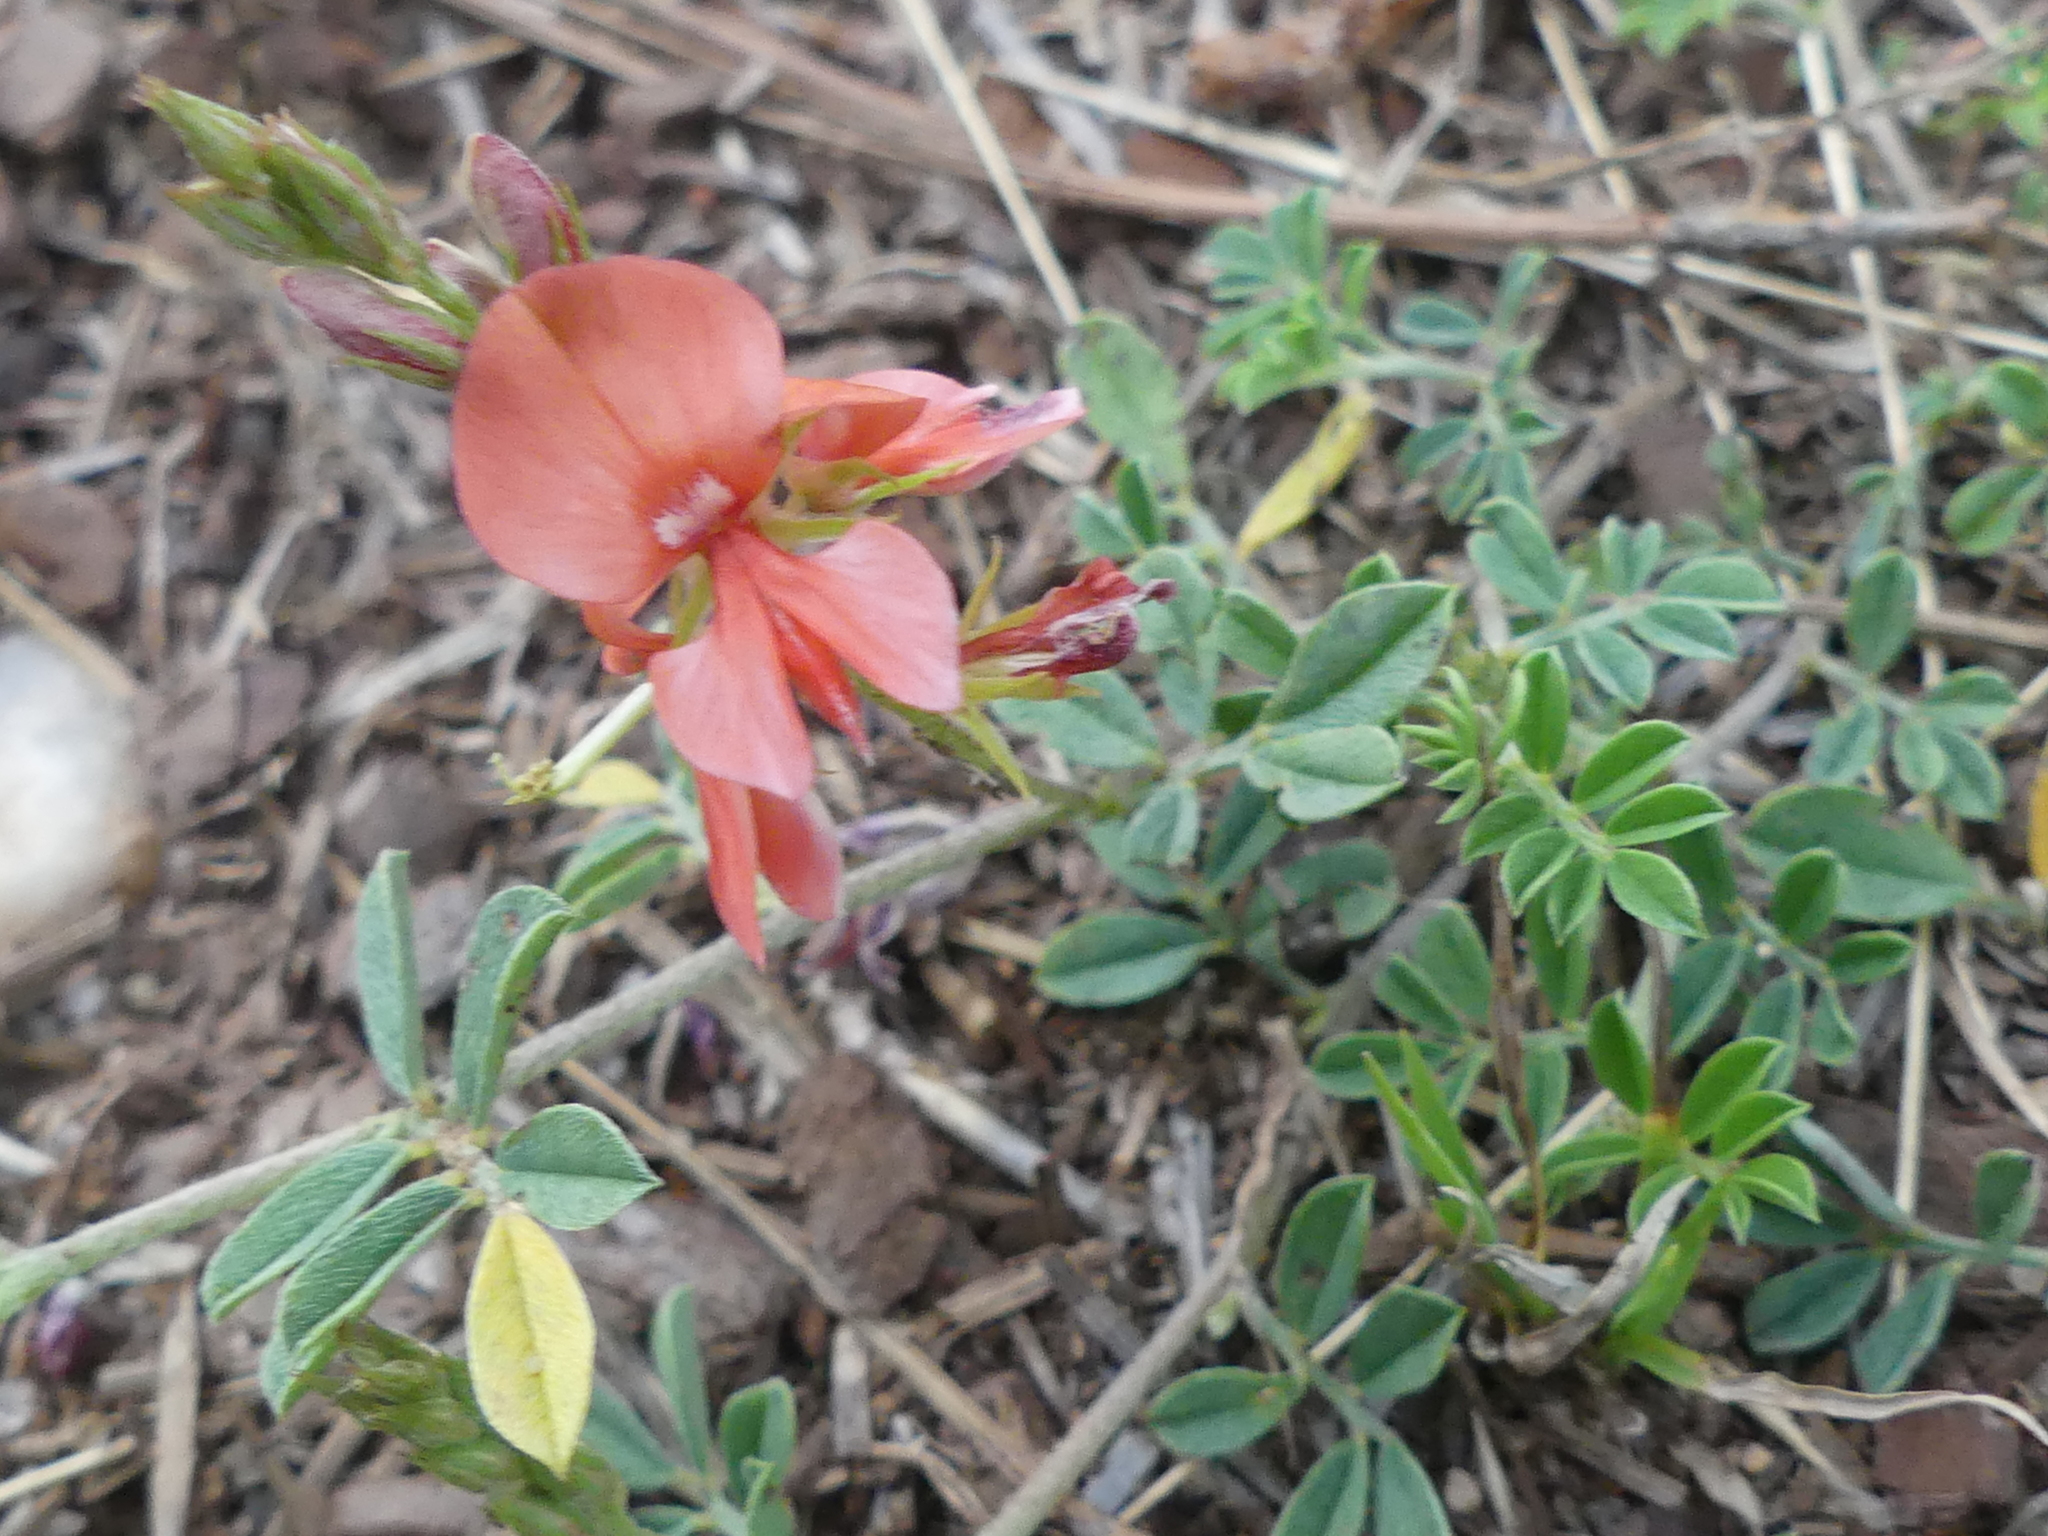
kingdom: Plantae
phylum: Tracheophyta
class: Magnoliopsida
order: Fabales
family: Fabaceae
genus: Indigofera
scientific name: Indigofera miniata
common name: Coast indigo
